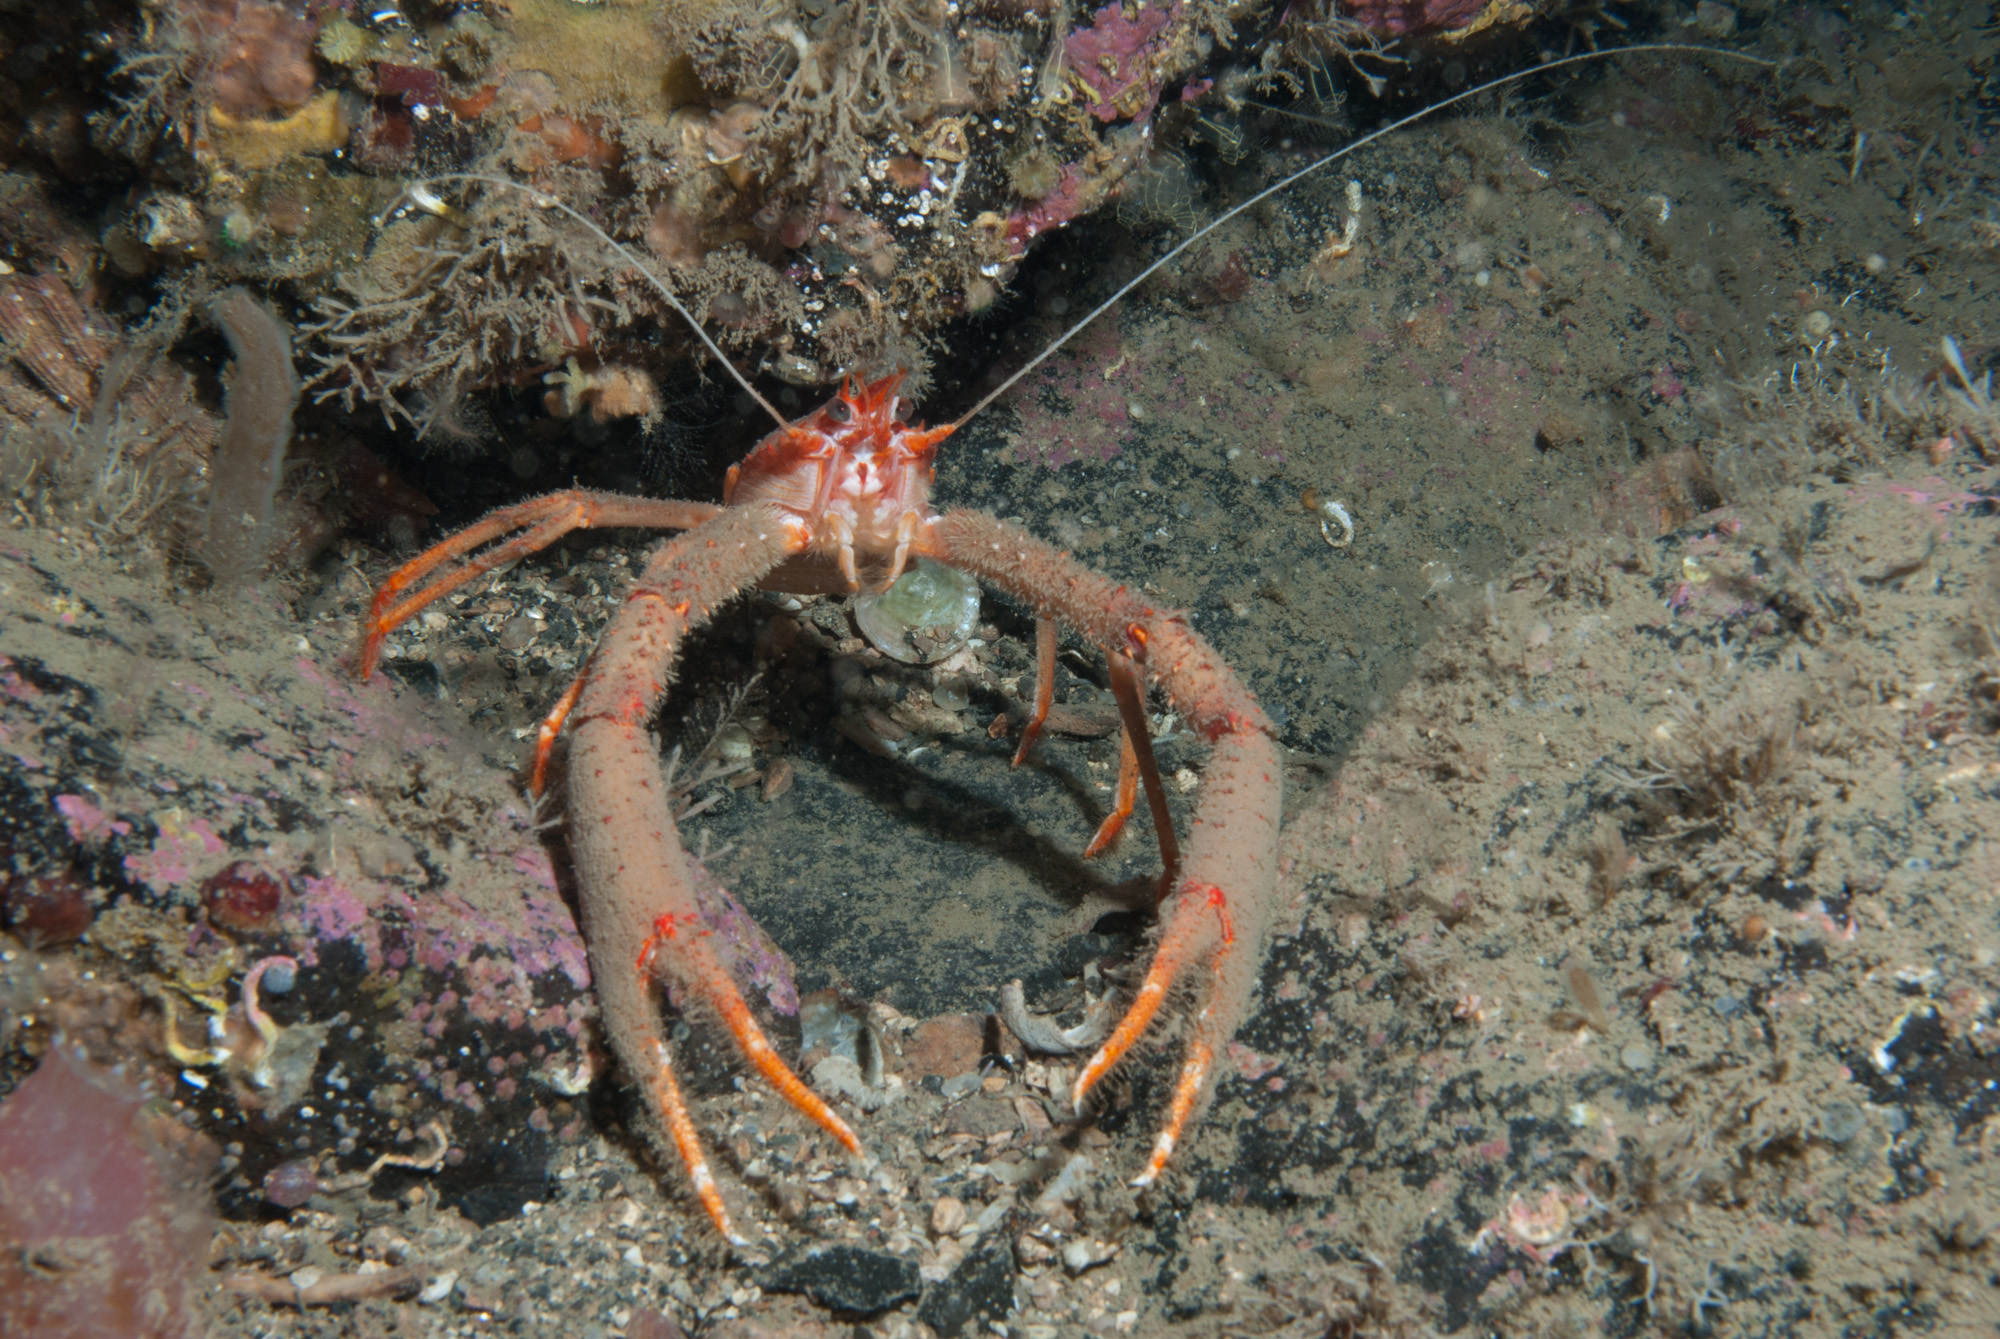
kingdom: Animalia
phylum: Arthropoda
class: Malacostraca
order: Decapoda
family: Munididae
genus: Munida
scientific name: Munida rugosa
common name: Rugose squat lobster
